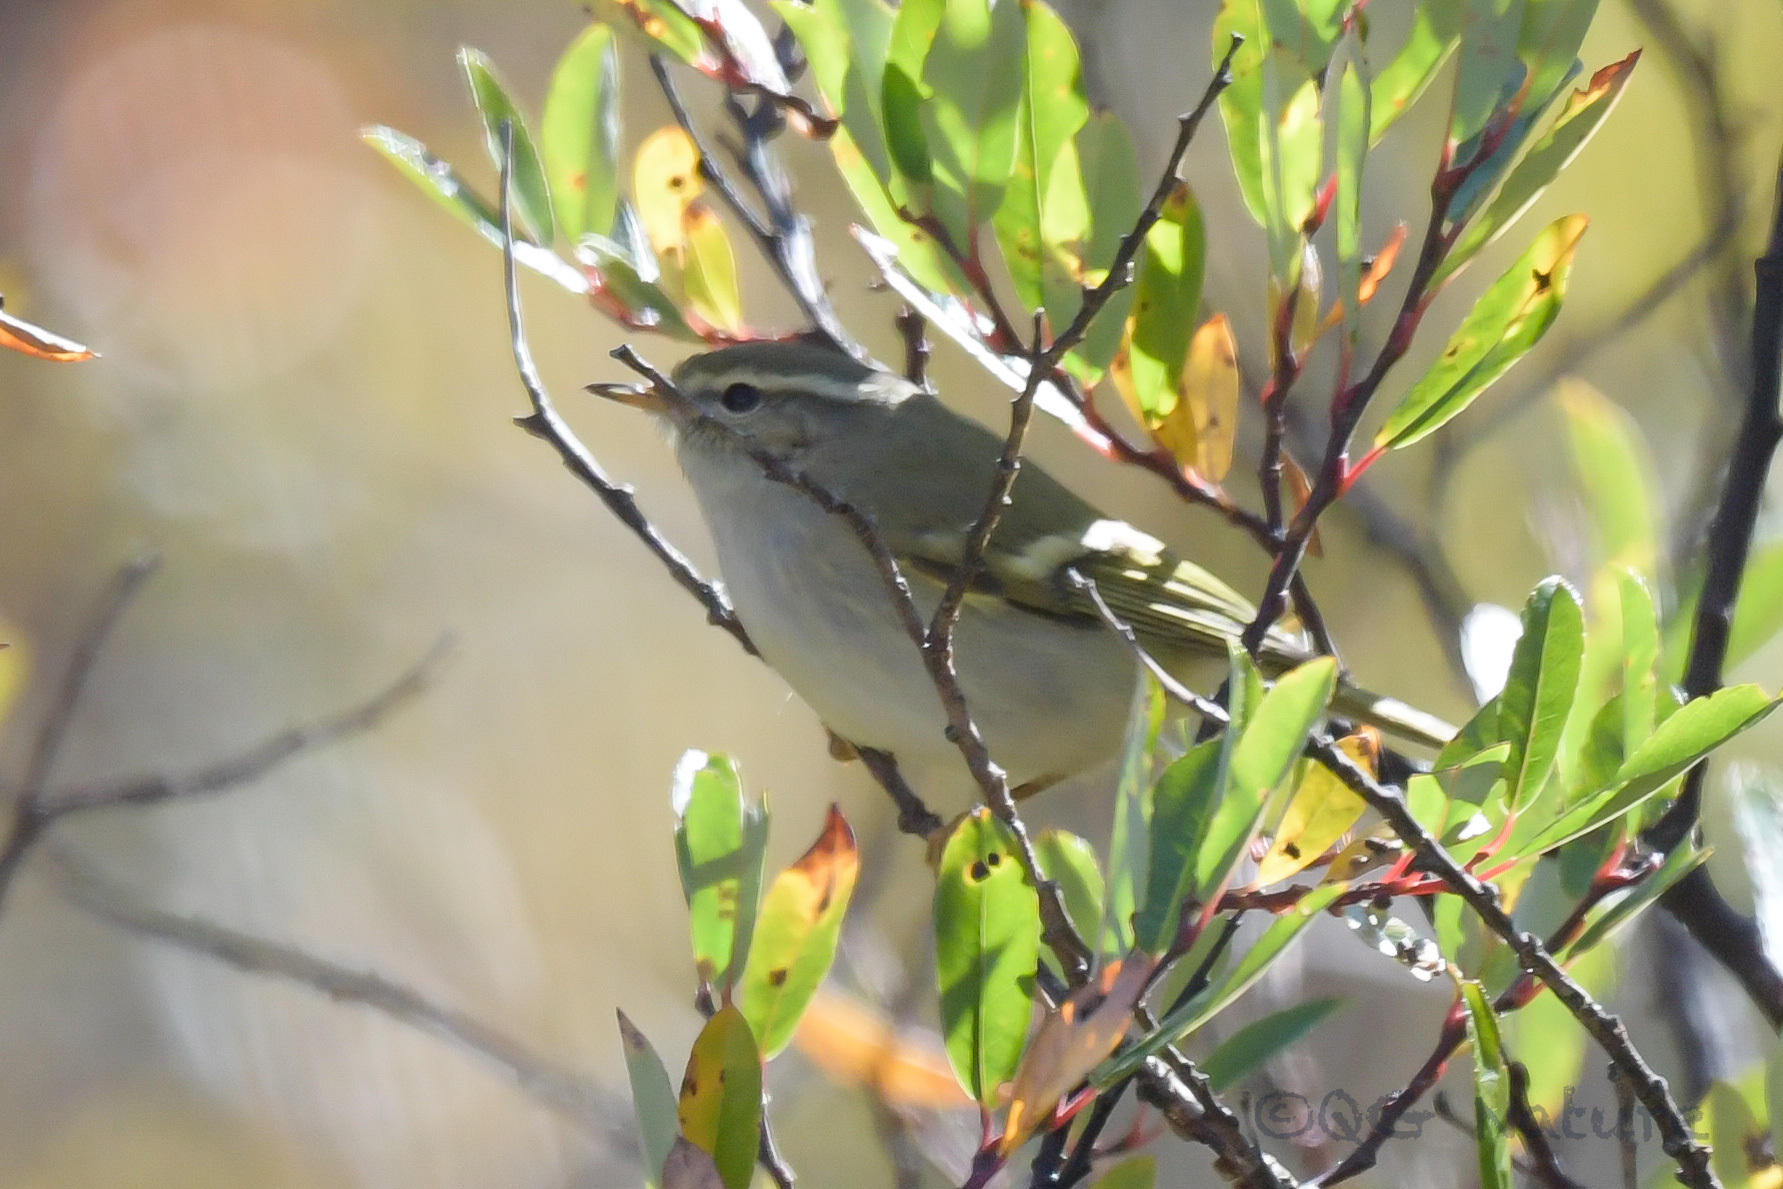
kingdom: Animalia
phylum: Chordata
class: Aves
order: Passeriformes
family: Phylloscopidae
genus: Phylloscopus
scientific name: Phylloscopus humei
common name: Hume's leaf warbler
